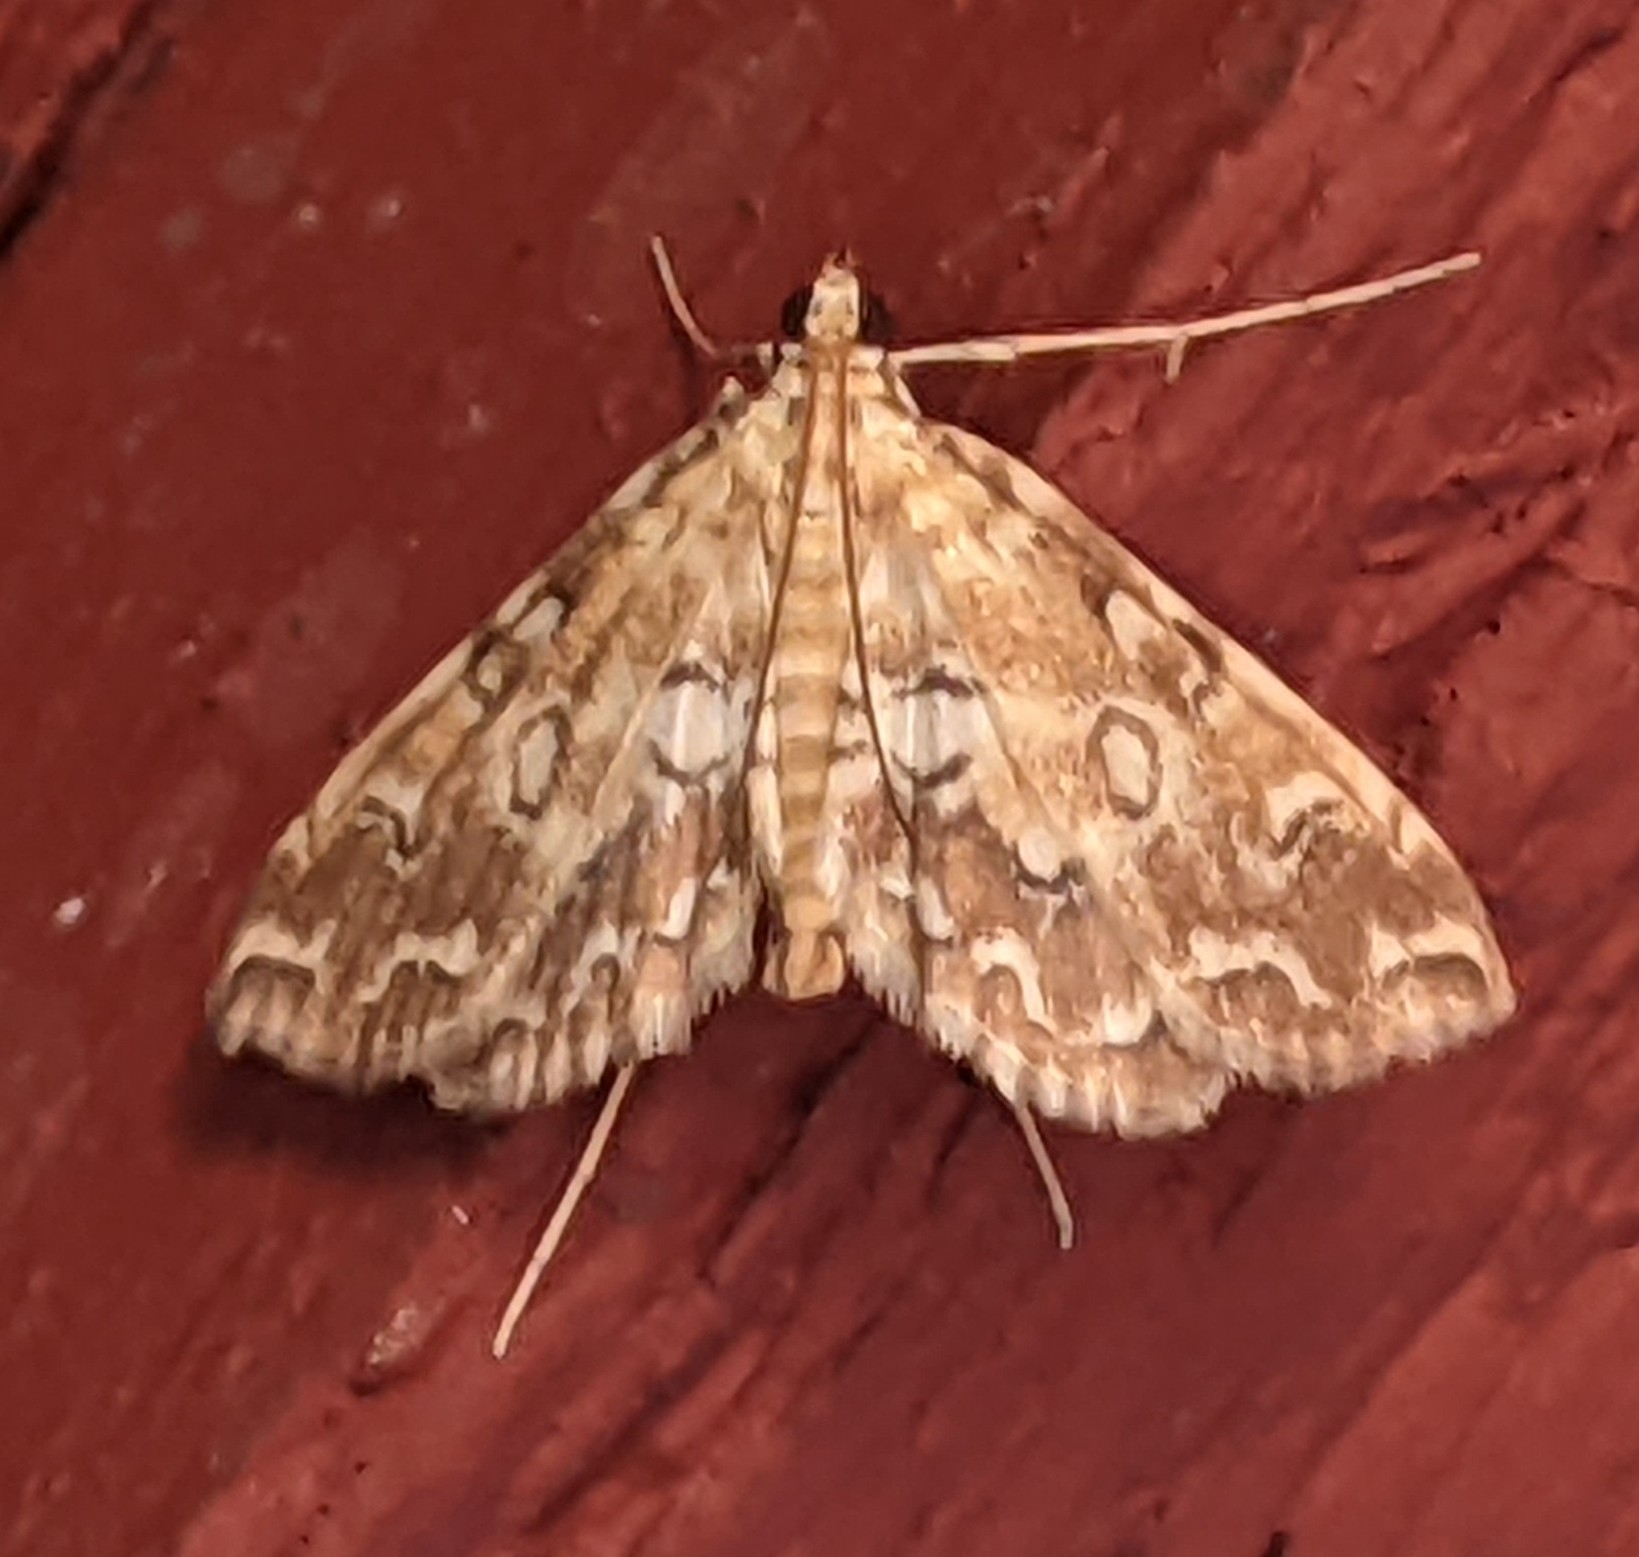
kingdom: Animalia
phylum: Arthropoda
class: Insecta
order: Lepidoptera
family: Crambidae
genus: Elophila
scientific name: Elophila icciusalis
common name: Pondside pyralid moth
